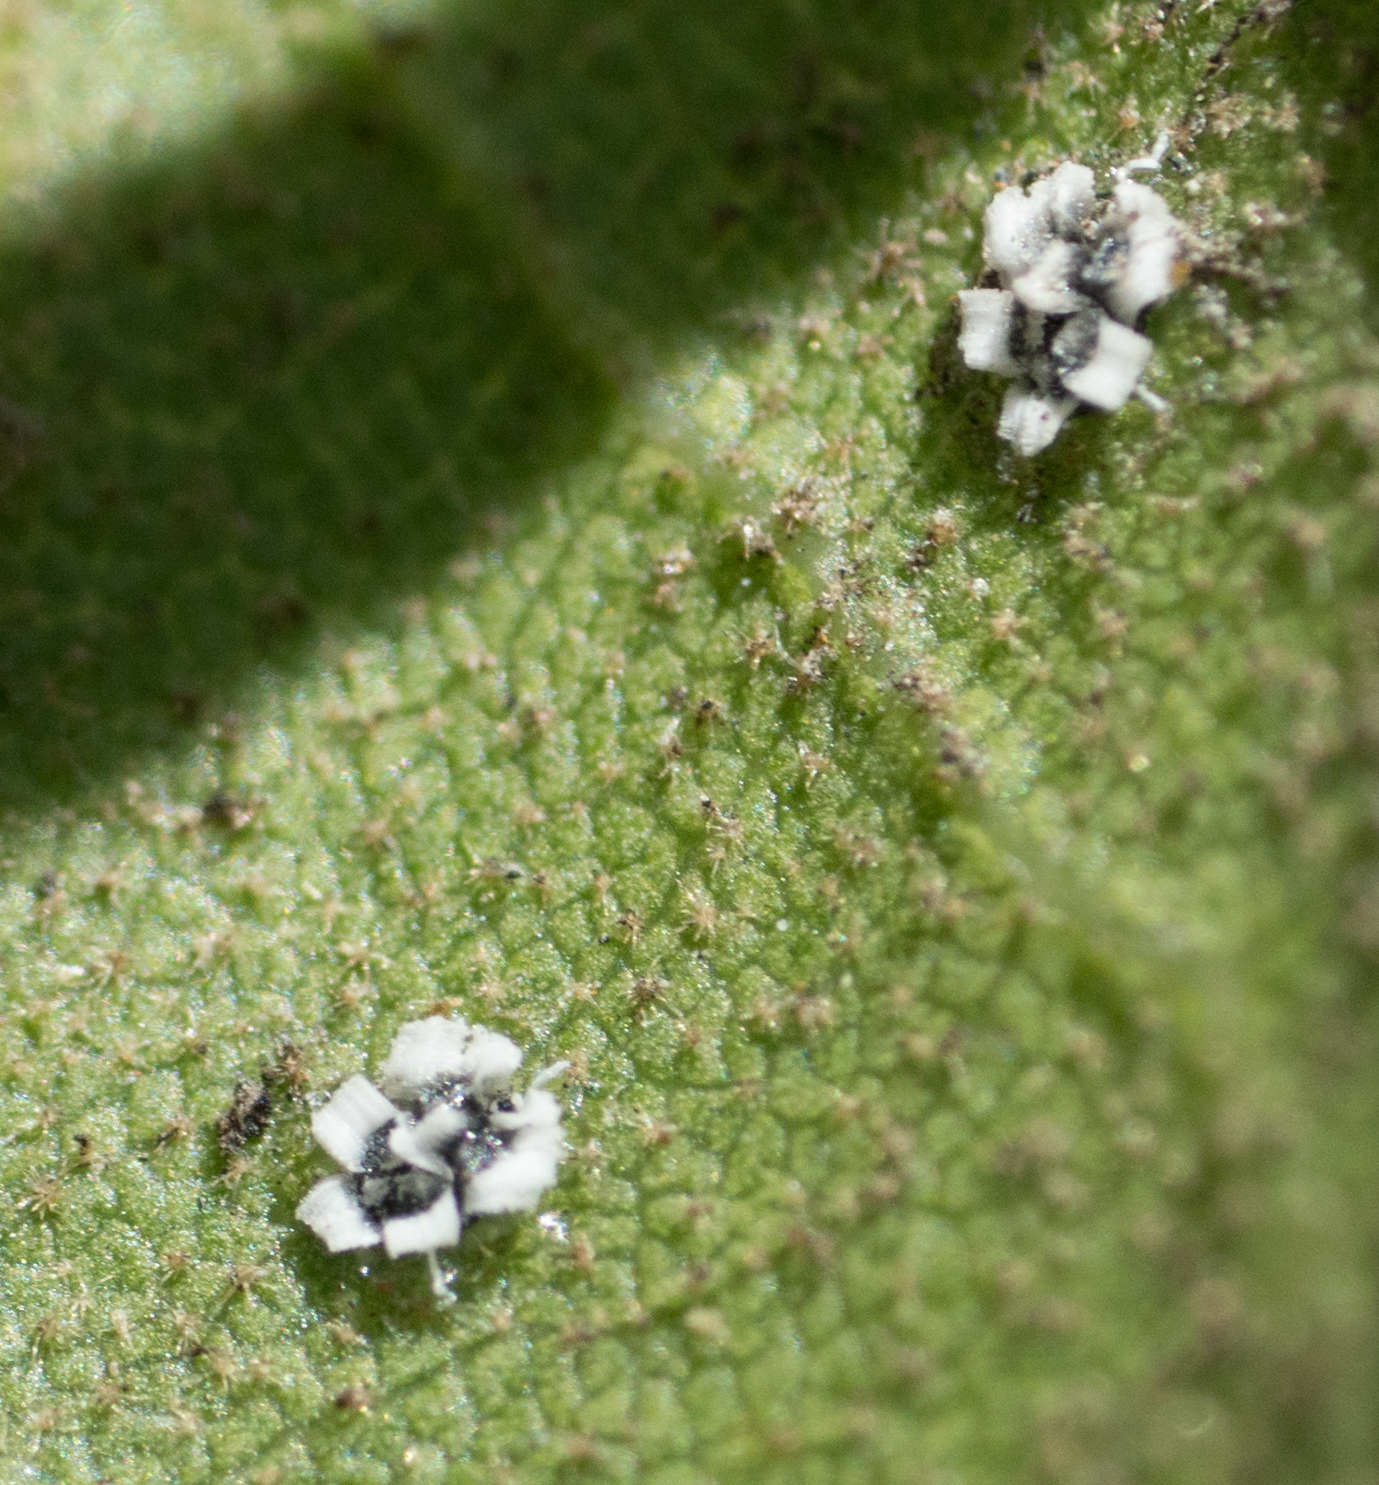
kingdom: Animalia
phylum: Arthropoda
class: Insecta
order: Hemiptera
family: Aleyrodidae
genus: Aleuroplatus
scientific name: Aleuroplatus coronata
